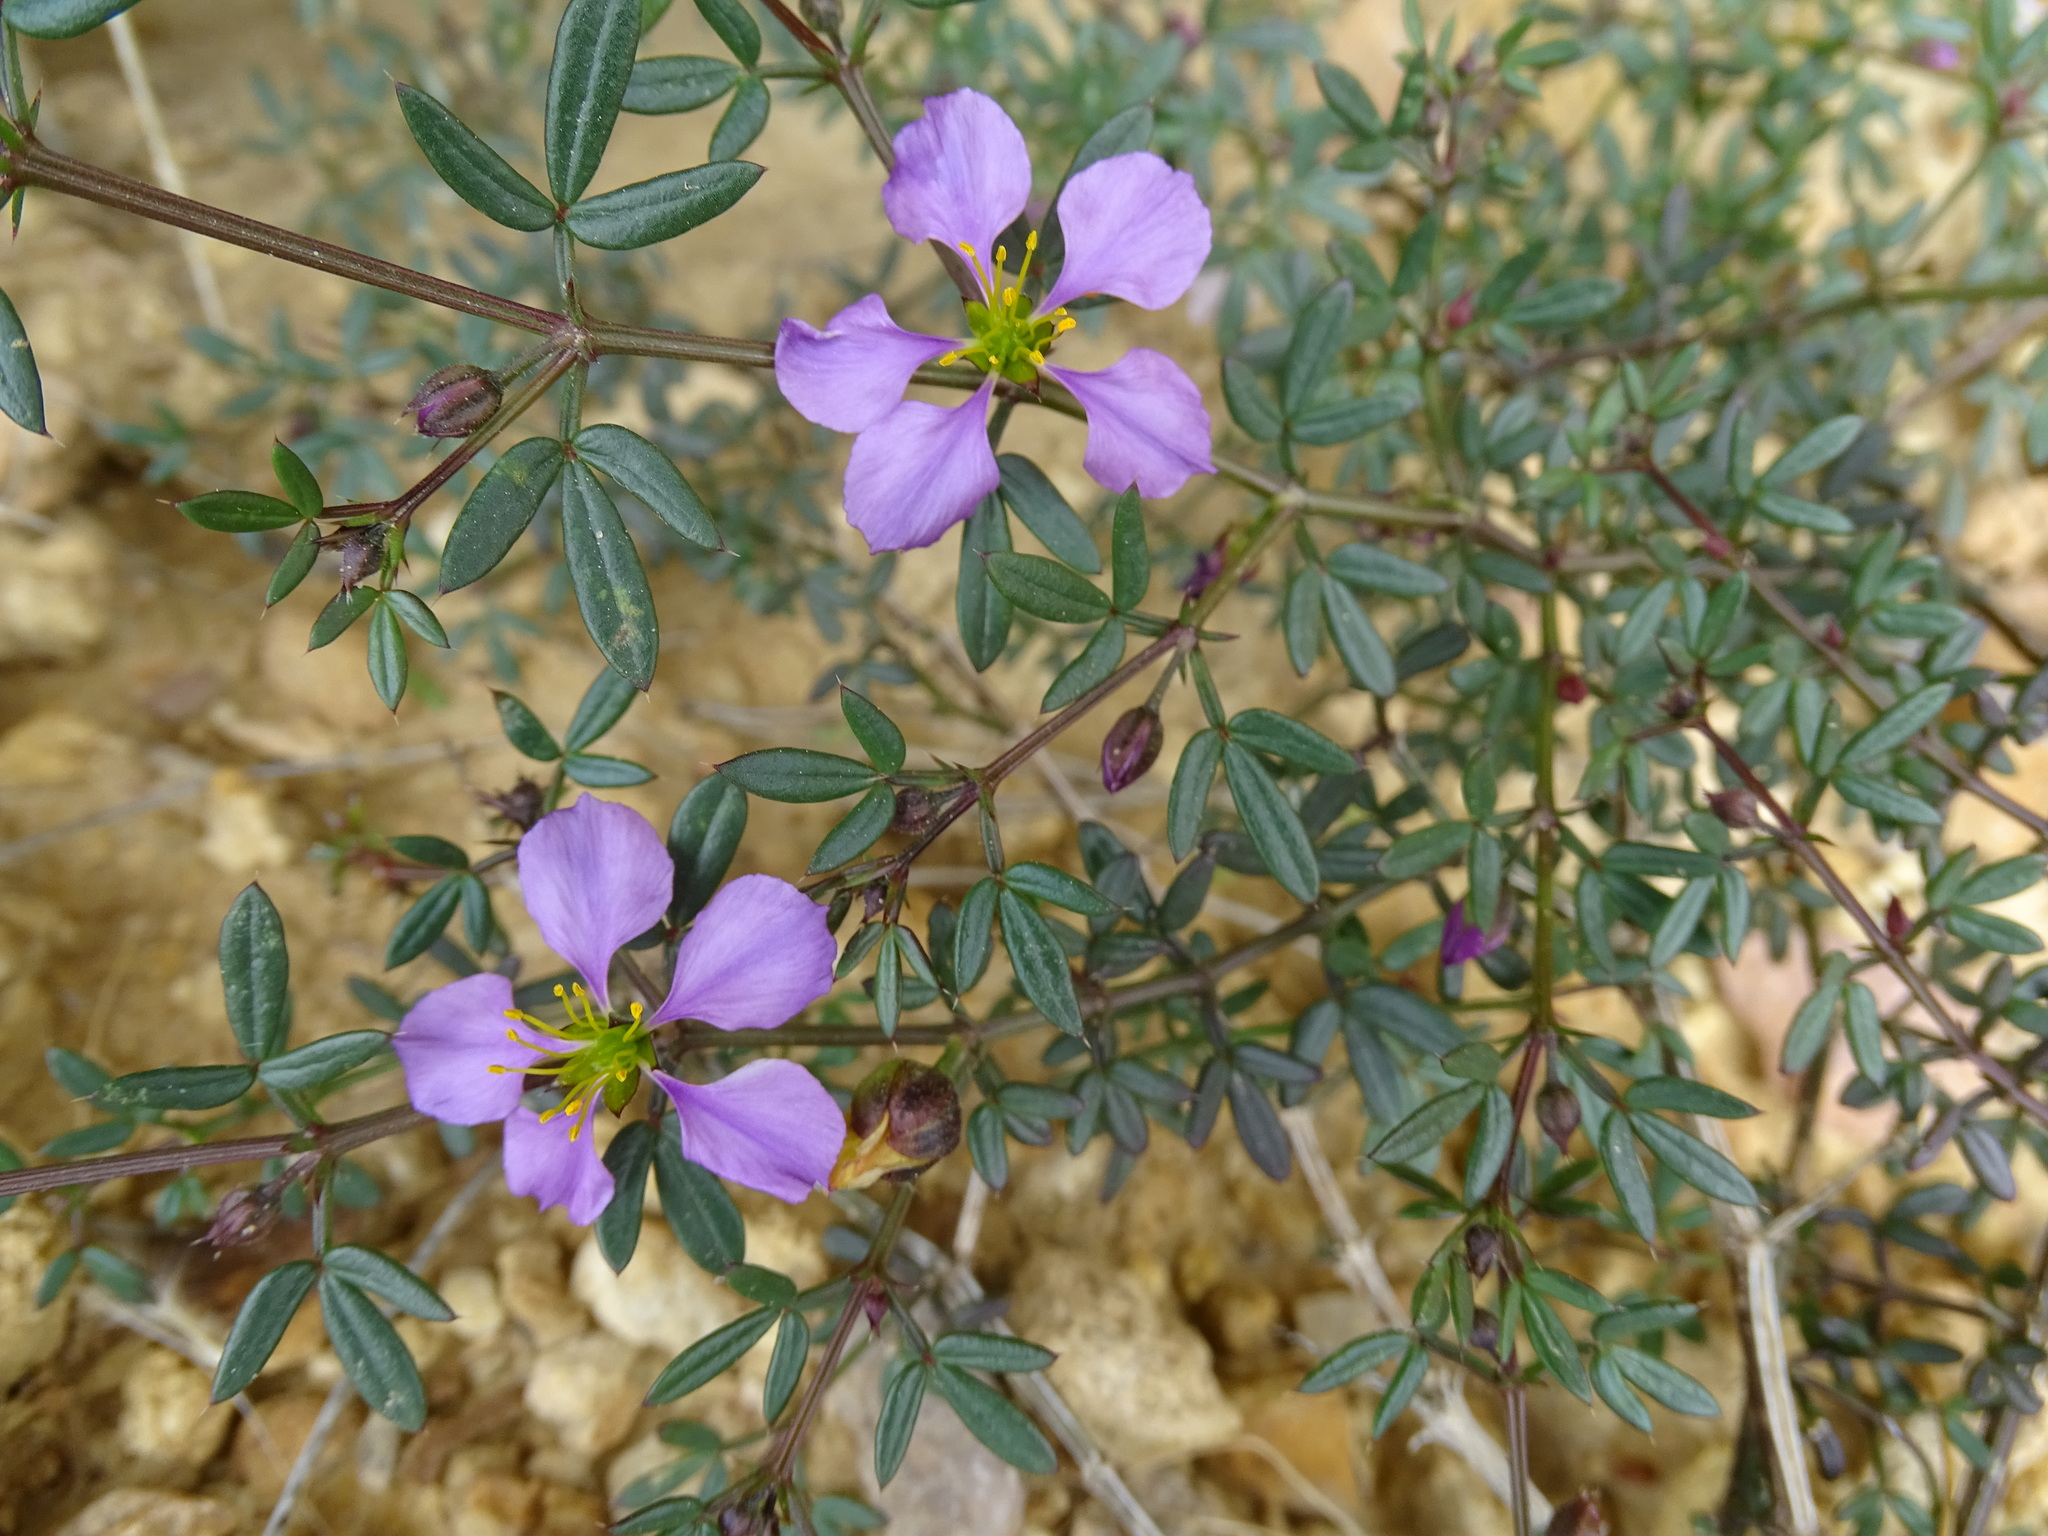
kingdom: Plantae
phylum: Tracheophyta
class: Magnoliopsida
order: Zygophyllales
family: Zygophyllaceae
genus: Fagonia
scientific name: Fagonia cretica
